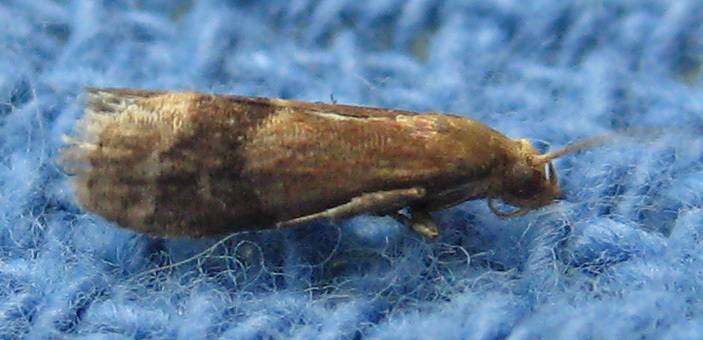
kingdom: Animalia
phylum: Arthropoda
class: Insecta
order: Lepidoptera
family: Pyralidae
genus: Eulogia
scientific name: Eulogia ochrifrontella
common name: Broad-banded eulogia moth
